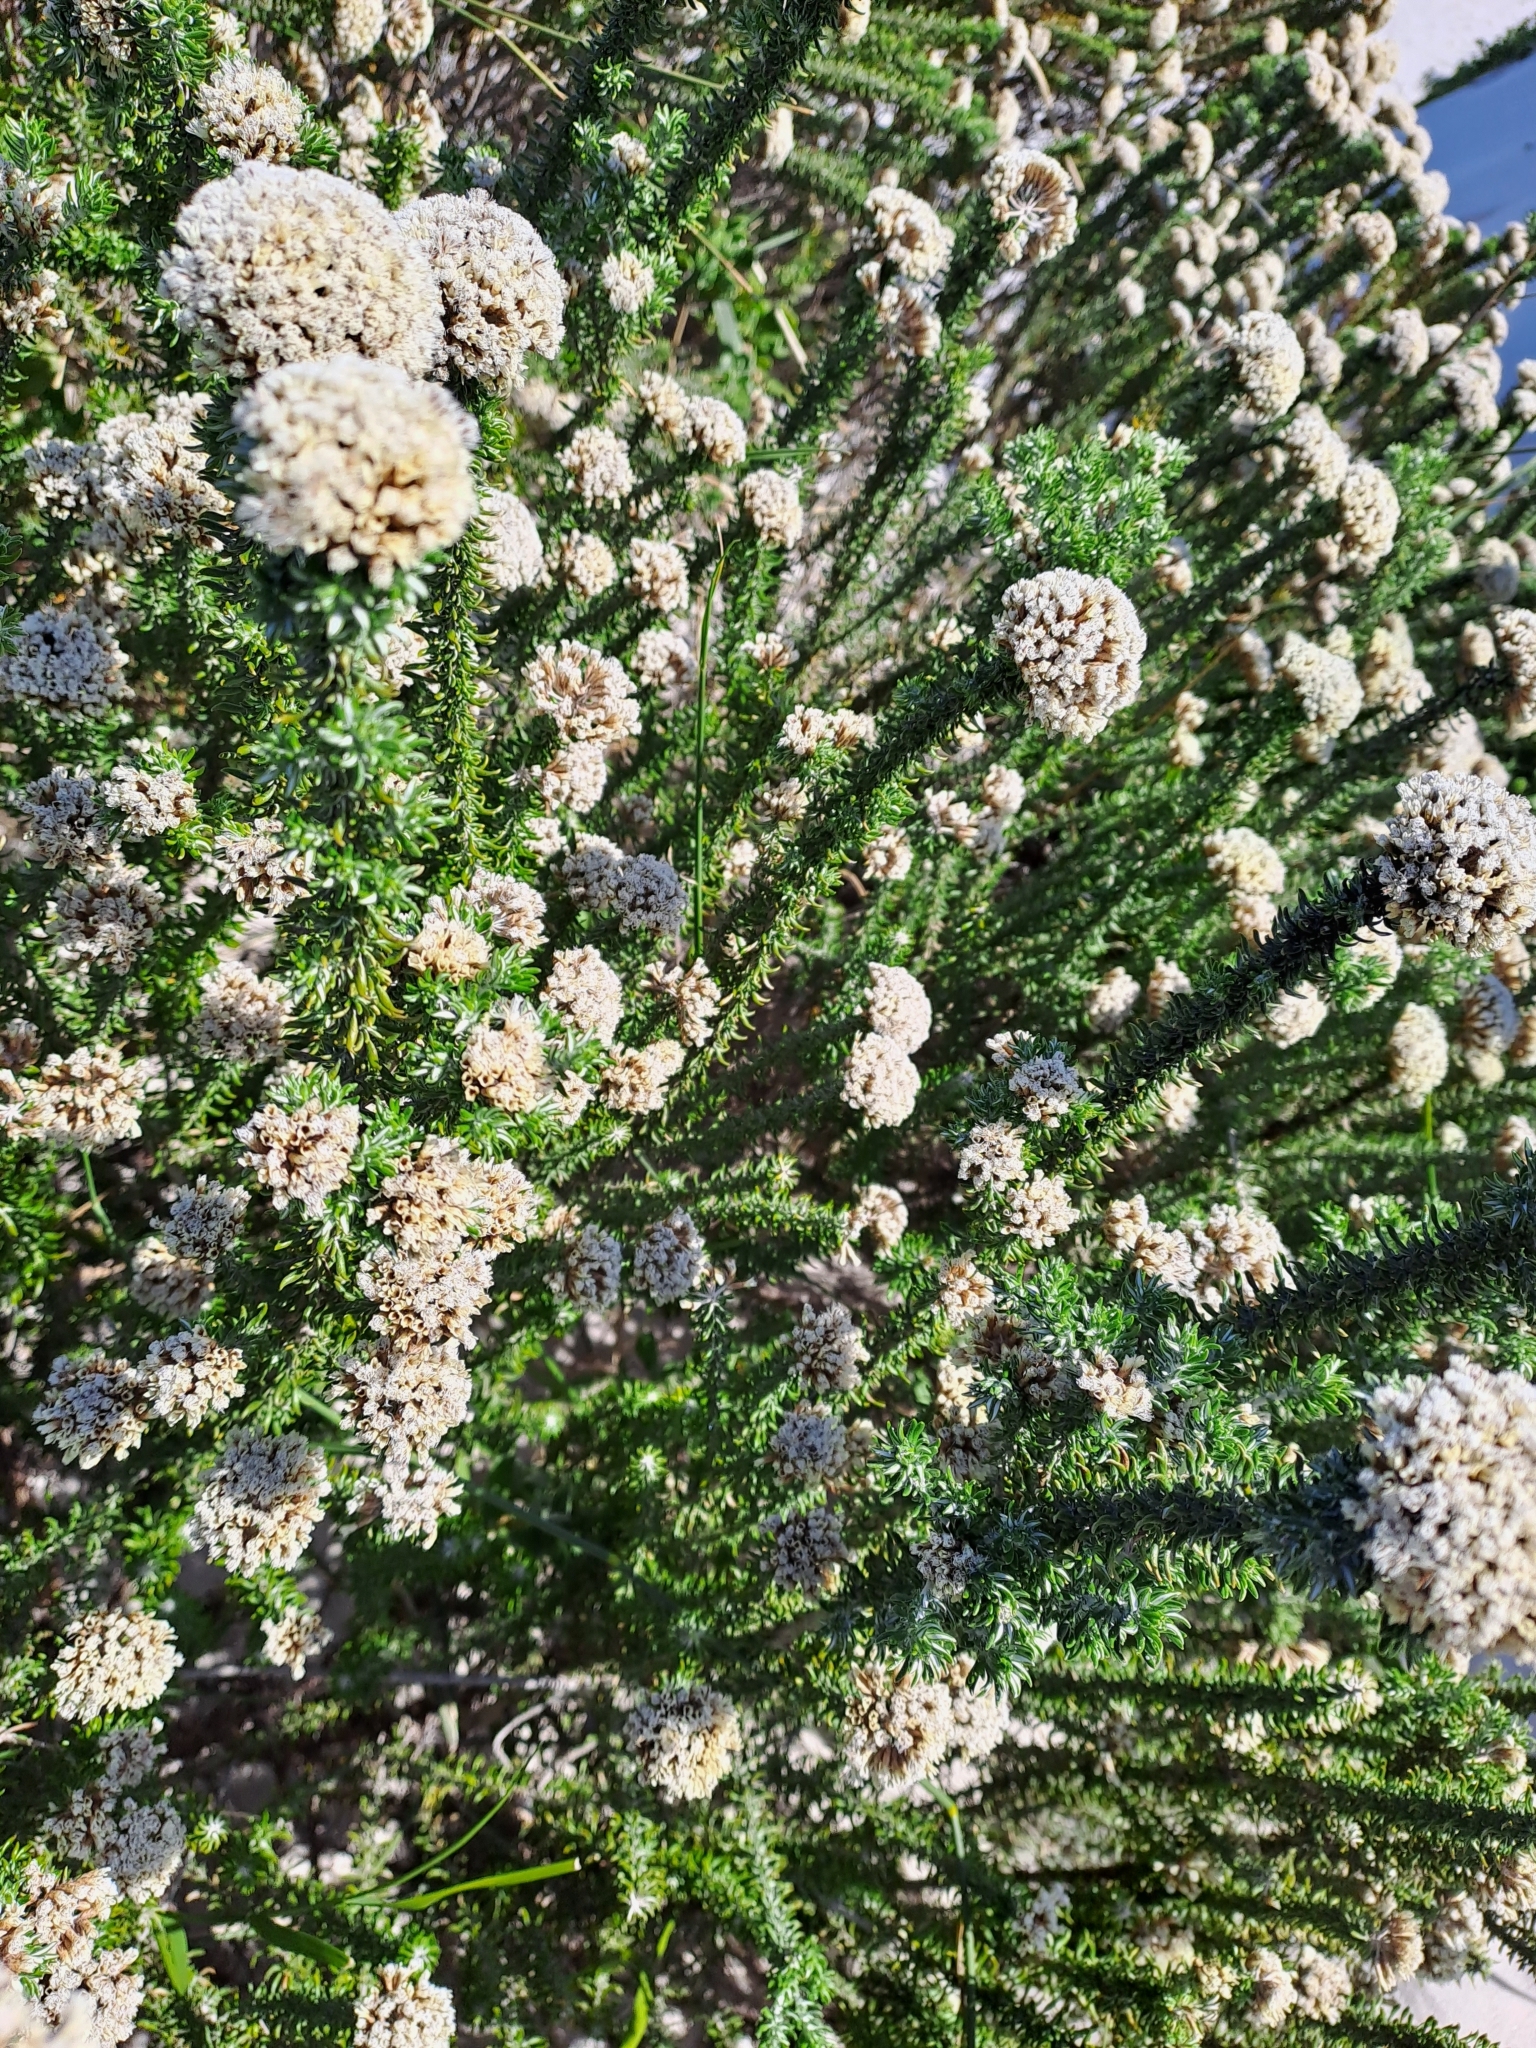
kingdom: Plantae
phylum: Tracheophyta
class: Magnoliopsida
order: Asterales
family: Asteraceae
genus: Metalasia
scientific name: Metalasia muricata
